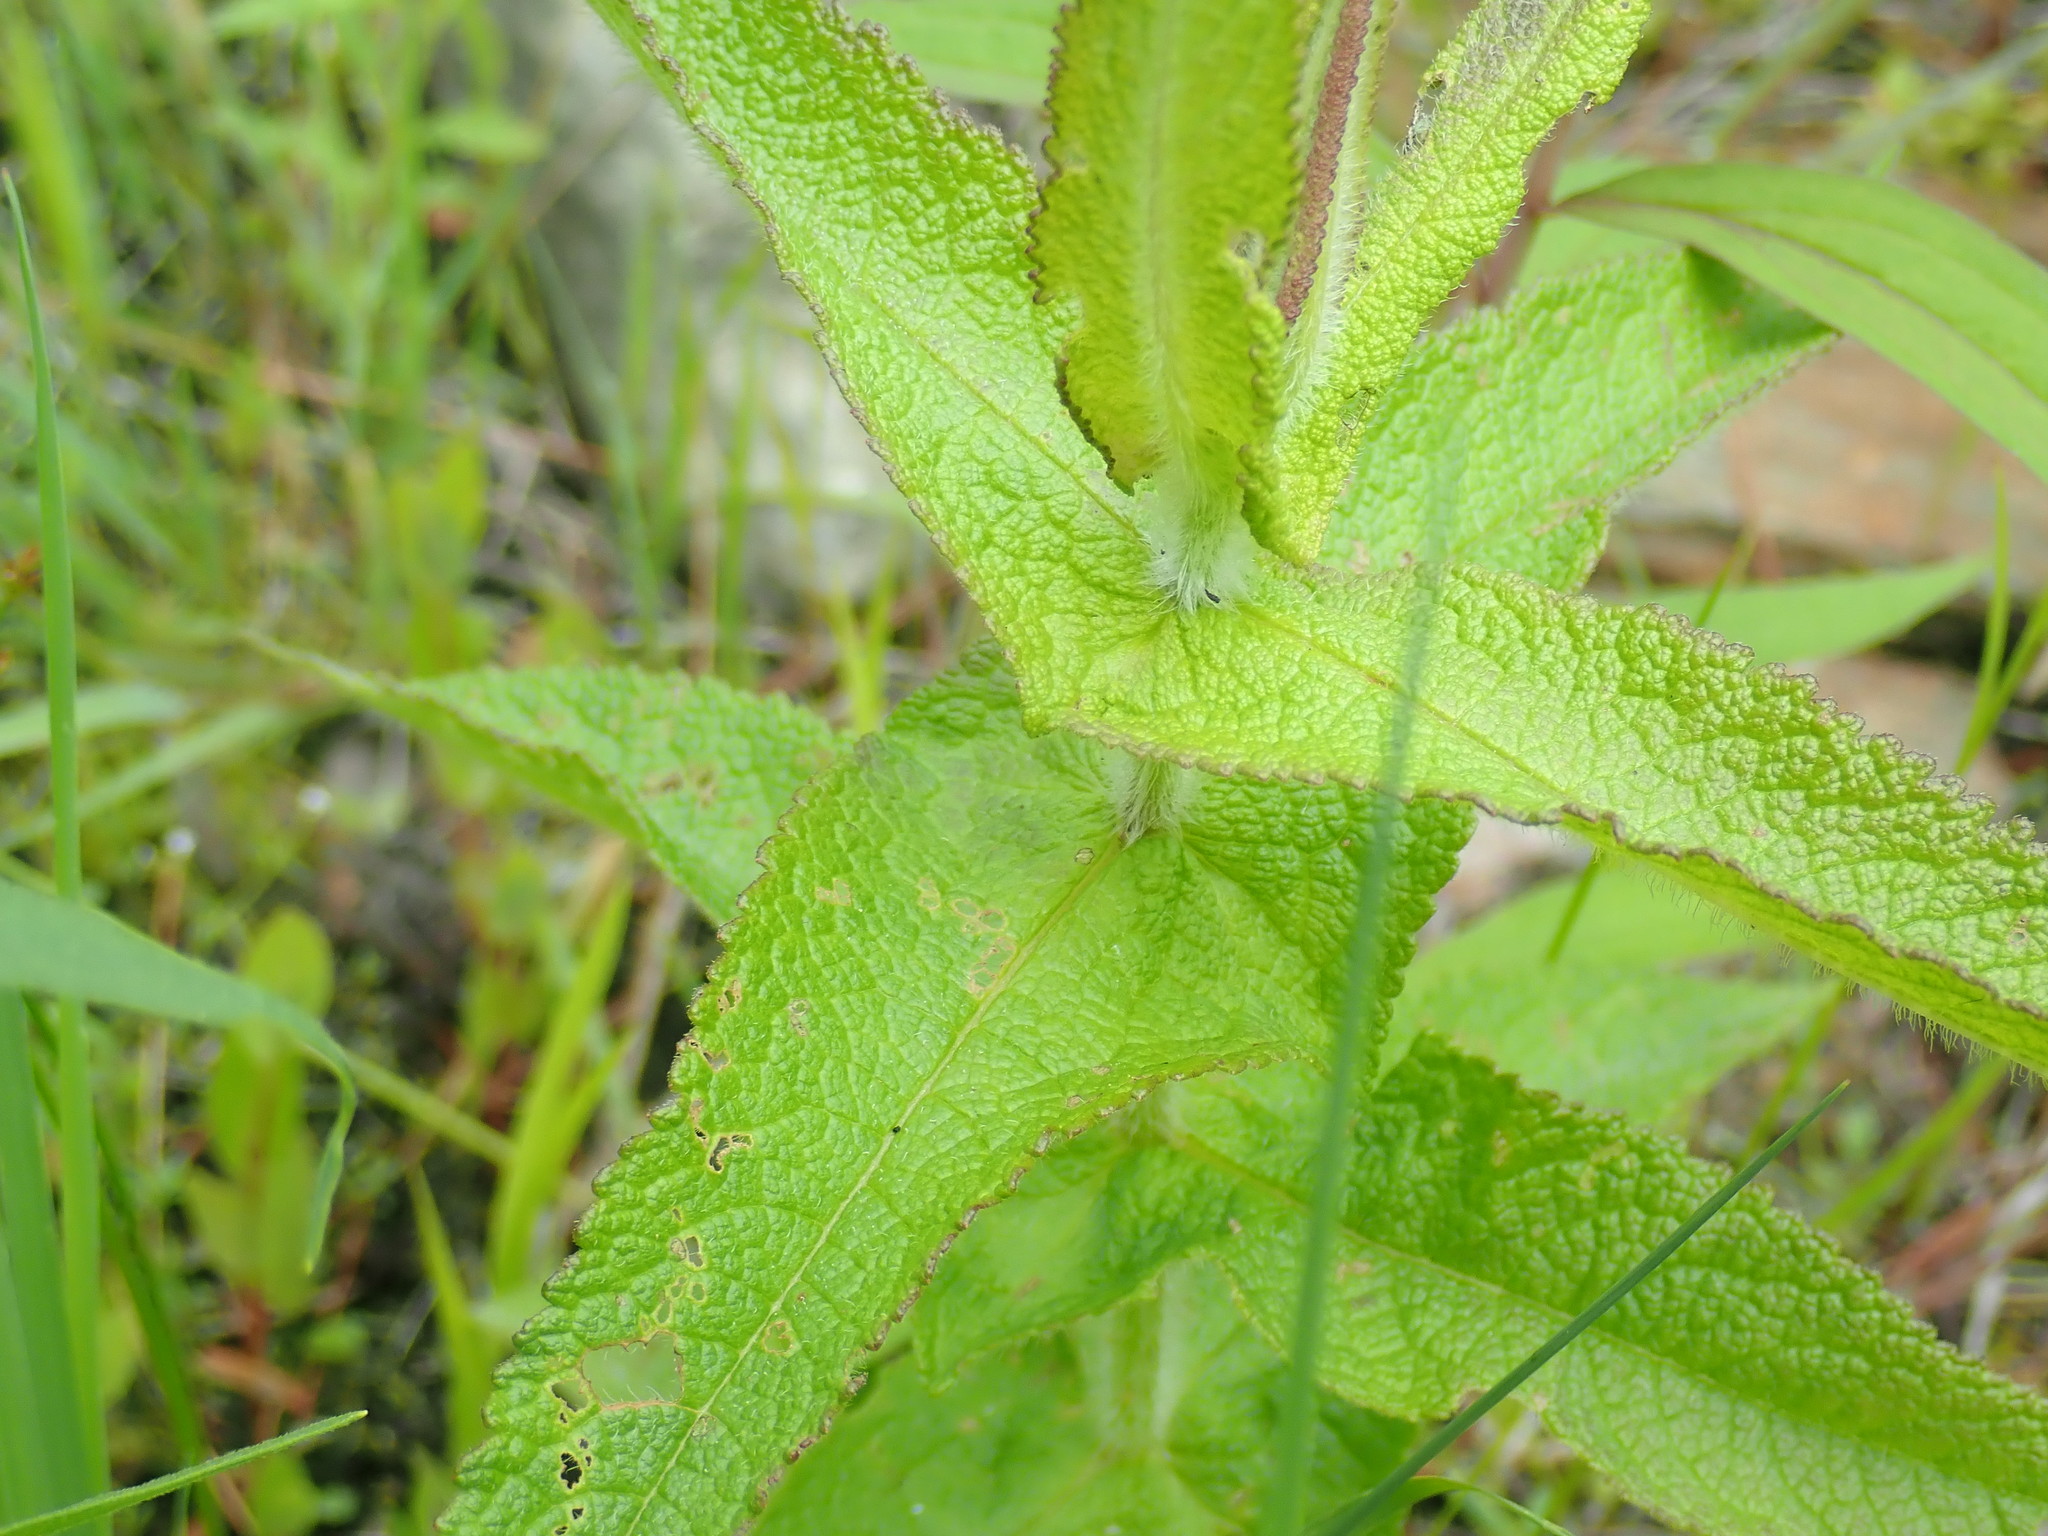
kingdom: Plantae
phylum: Tracheophyta
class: Magnoliopsida
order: Asterales
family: Asteraceae
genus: Eupatorium
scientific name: Eupatorium perfoliatum
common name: Boneset
